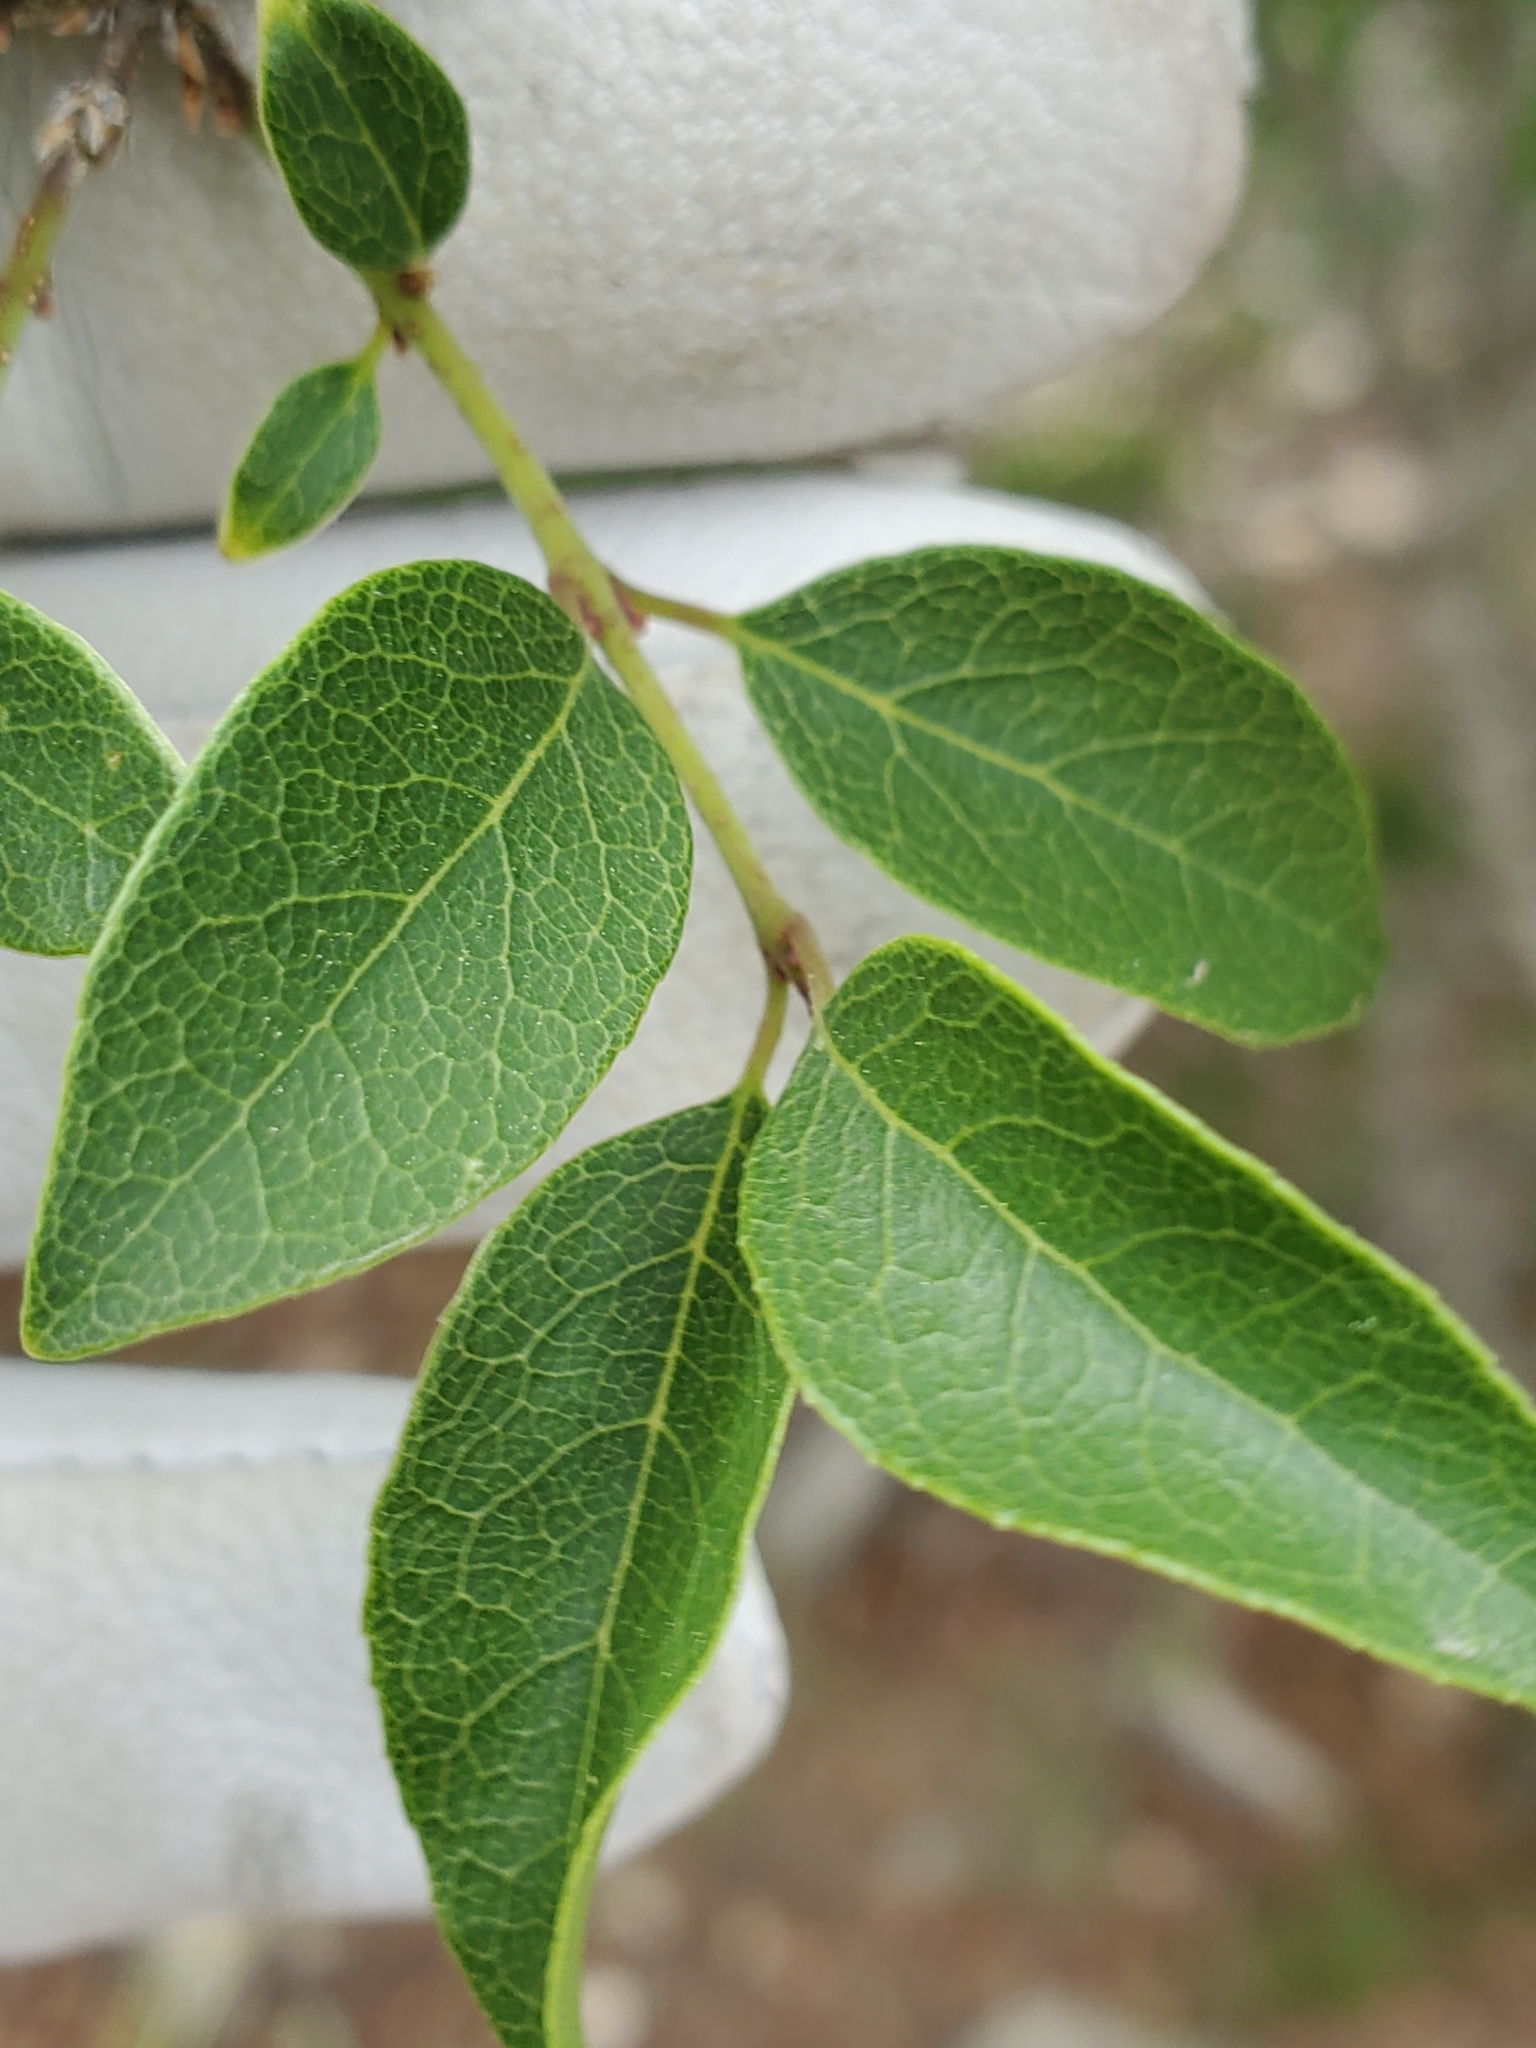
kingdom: Plantae
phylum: Tracheophyta
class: Magnoliopsida
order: Lamiales
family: Oleaceae
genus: Forestiera
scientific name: Forestiera reticulata
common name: Netleaf swamp-privet
